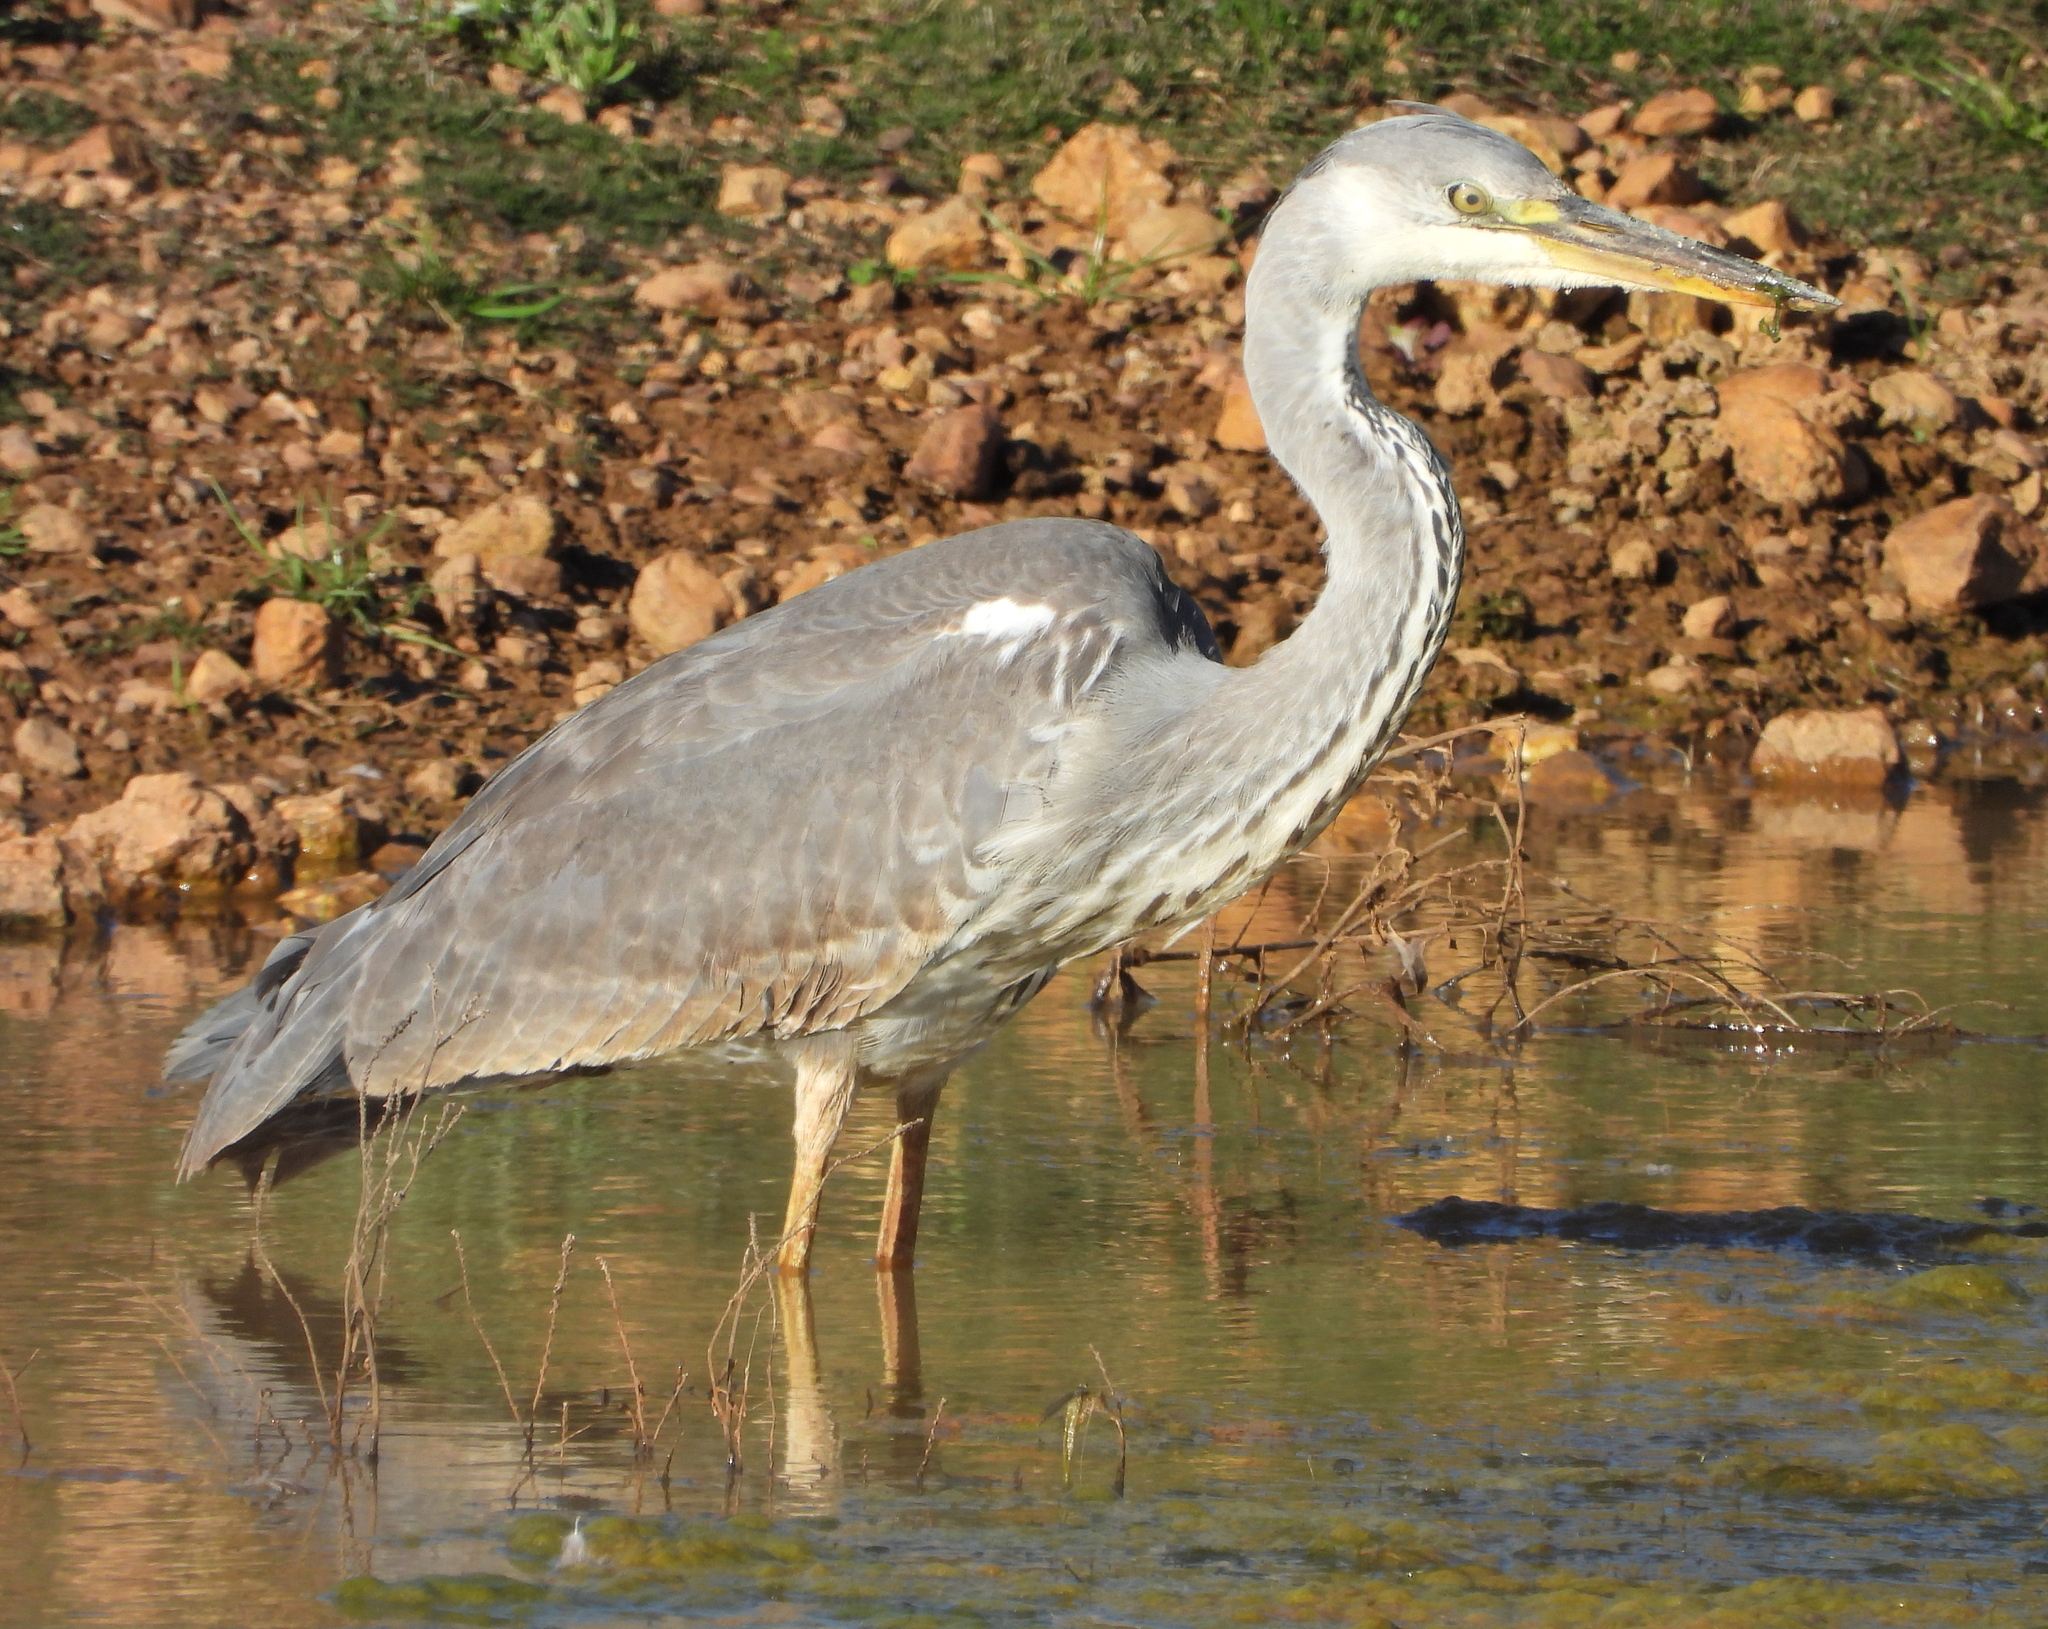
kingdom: Animalia
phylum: Chordata
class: Aves
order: Pelecaniformes
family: Ardeidae
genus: Ardea
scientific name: Ardea cinerea
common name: Grey heron
